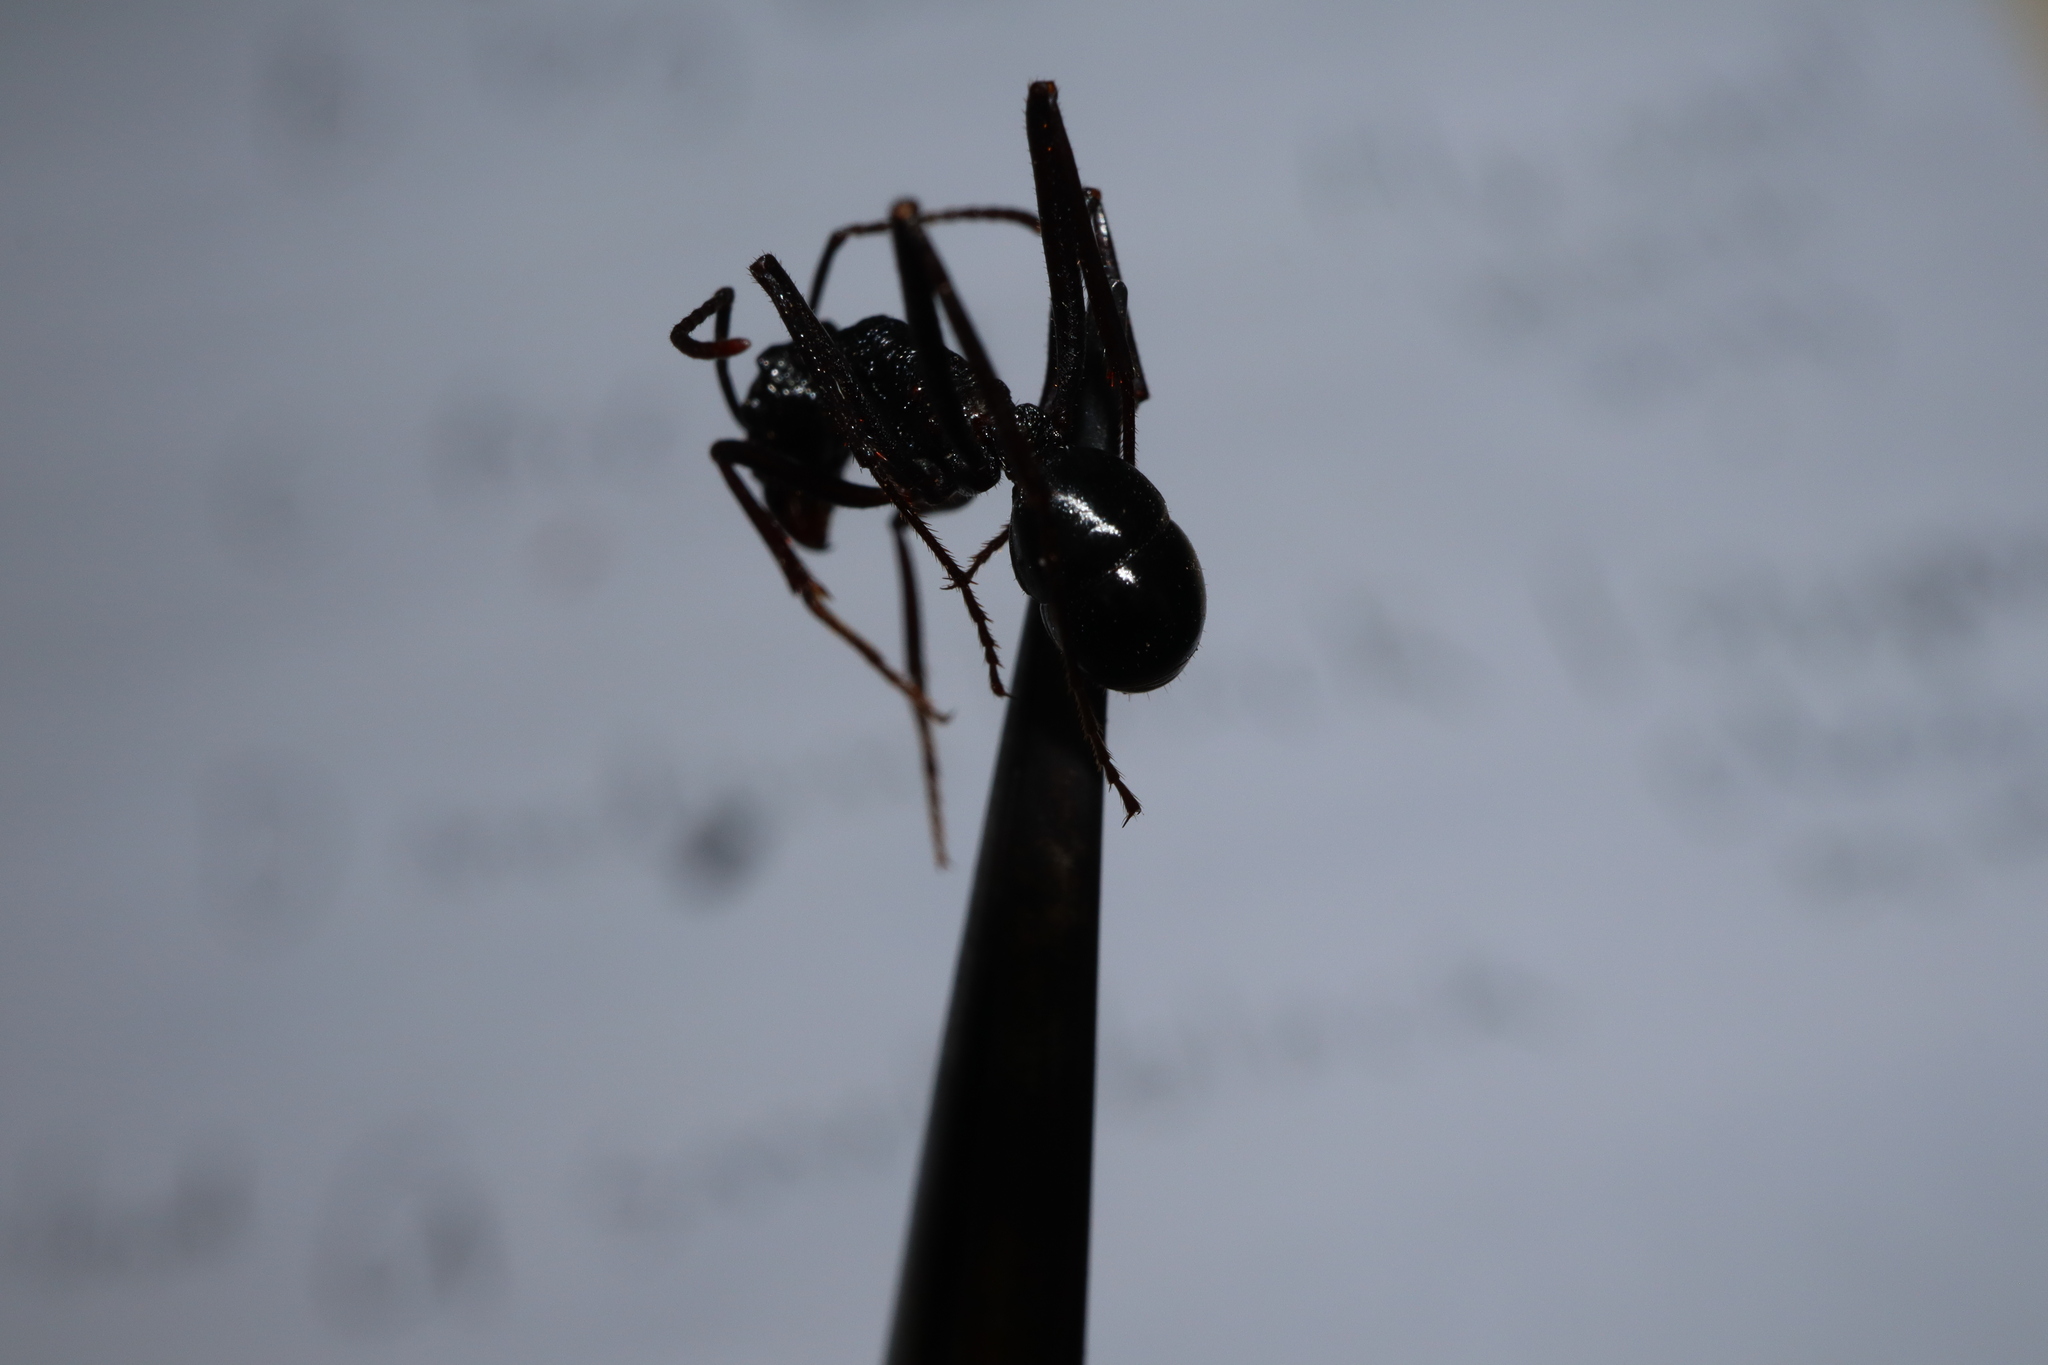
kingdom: Animalia
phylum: Arthropoda
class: Insecta
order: Hymenoptera
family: Formicidae
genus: Rhytidoponera
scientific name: Rhytidoponera mayri
